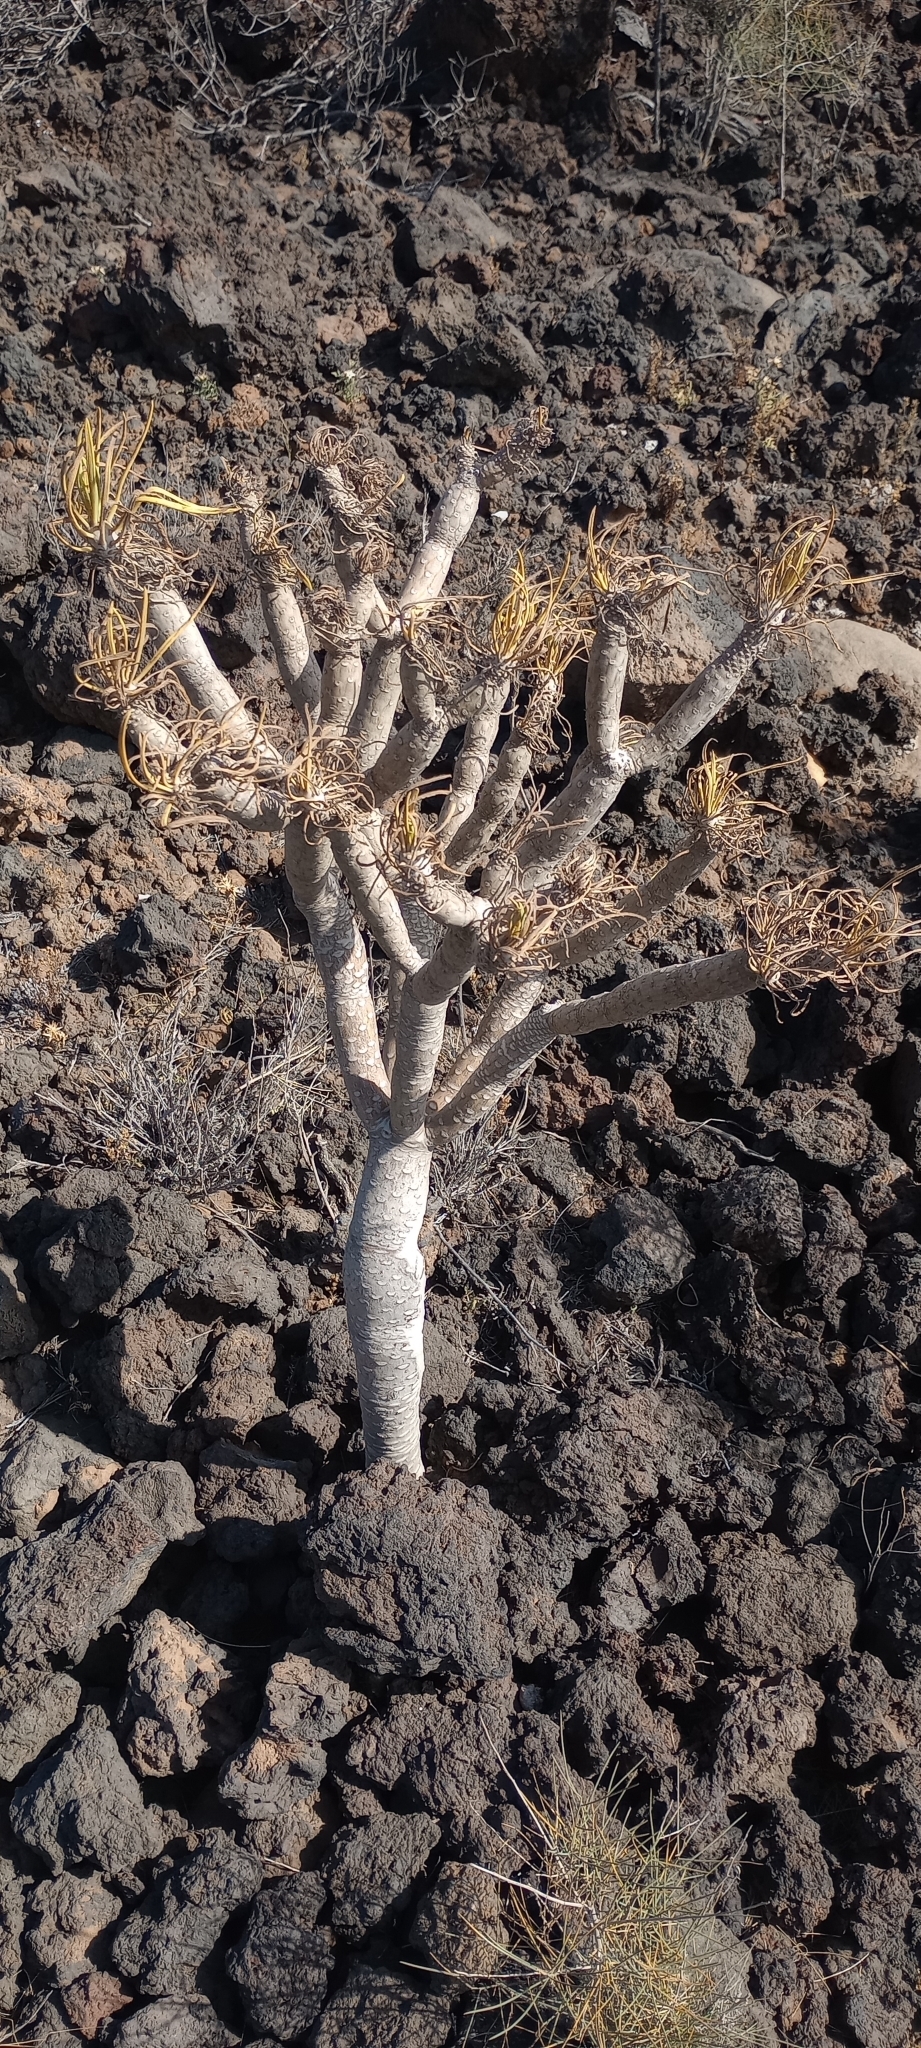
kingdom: Plantae
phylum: Tracheophyta
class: Magnoliopsida
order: Asterales
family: Asteraceae
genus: Kleinia
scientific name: Kleinia neriifolia
